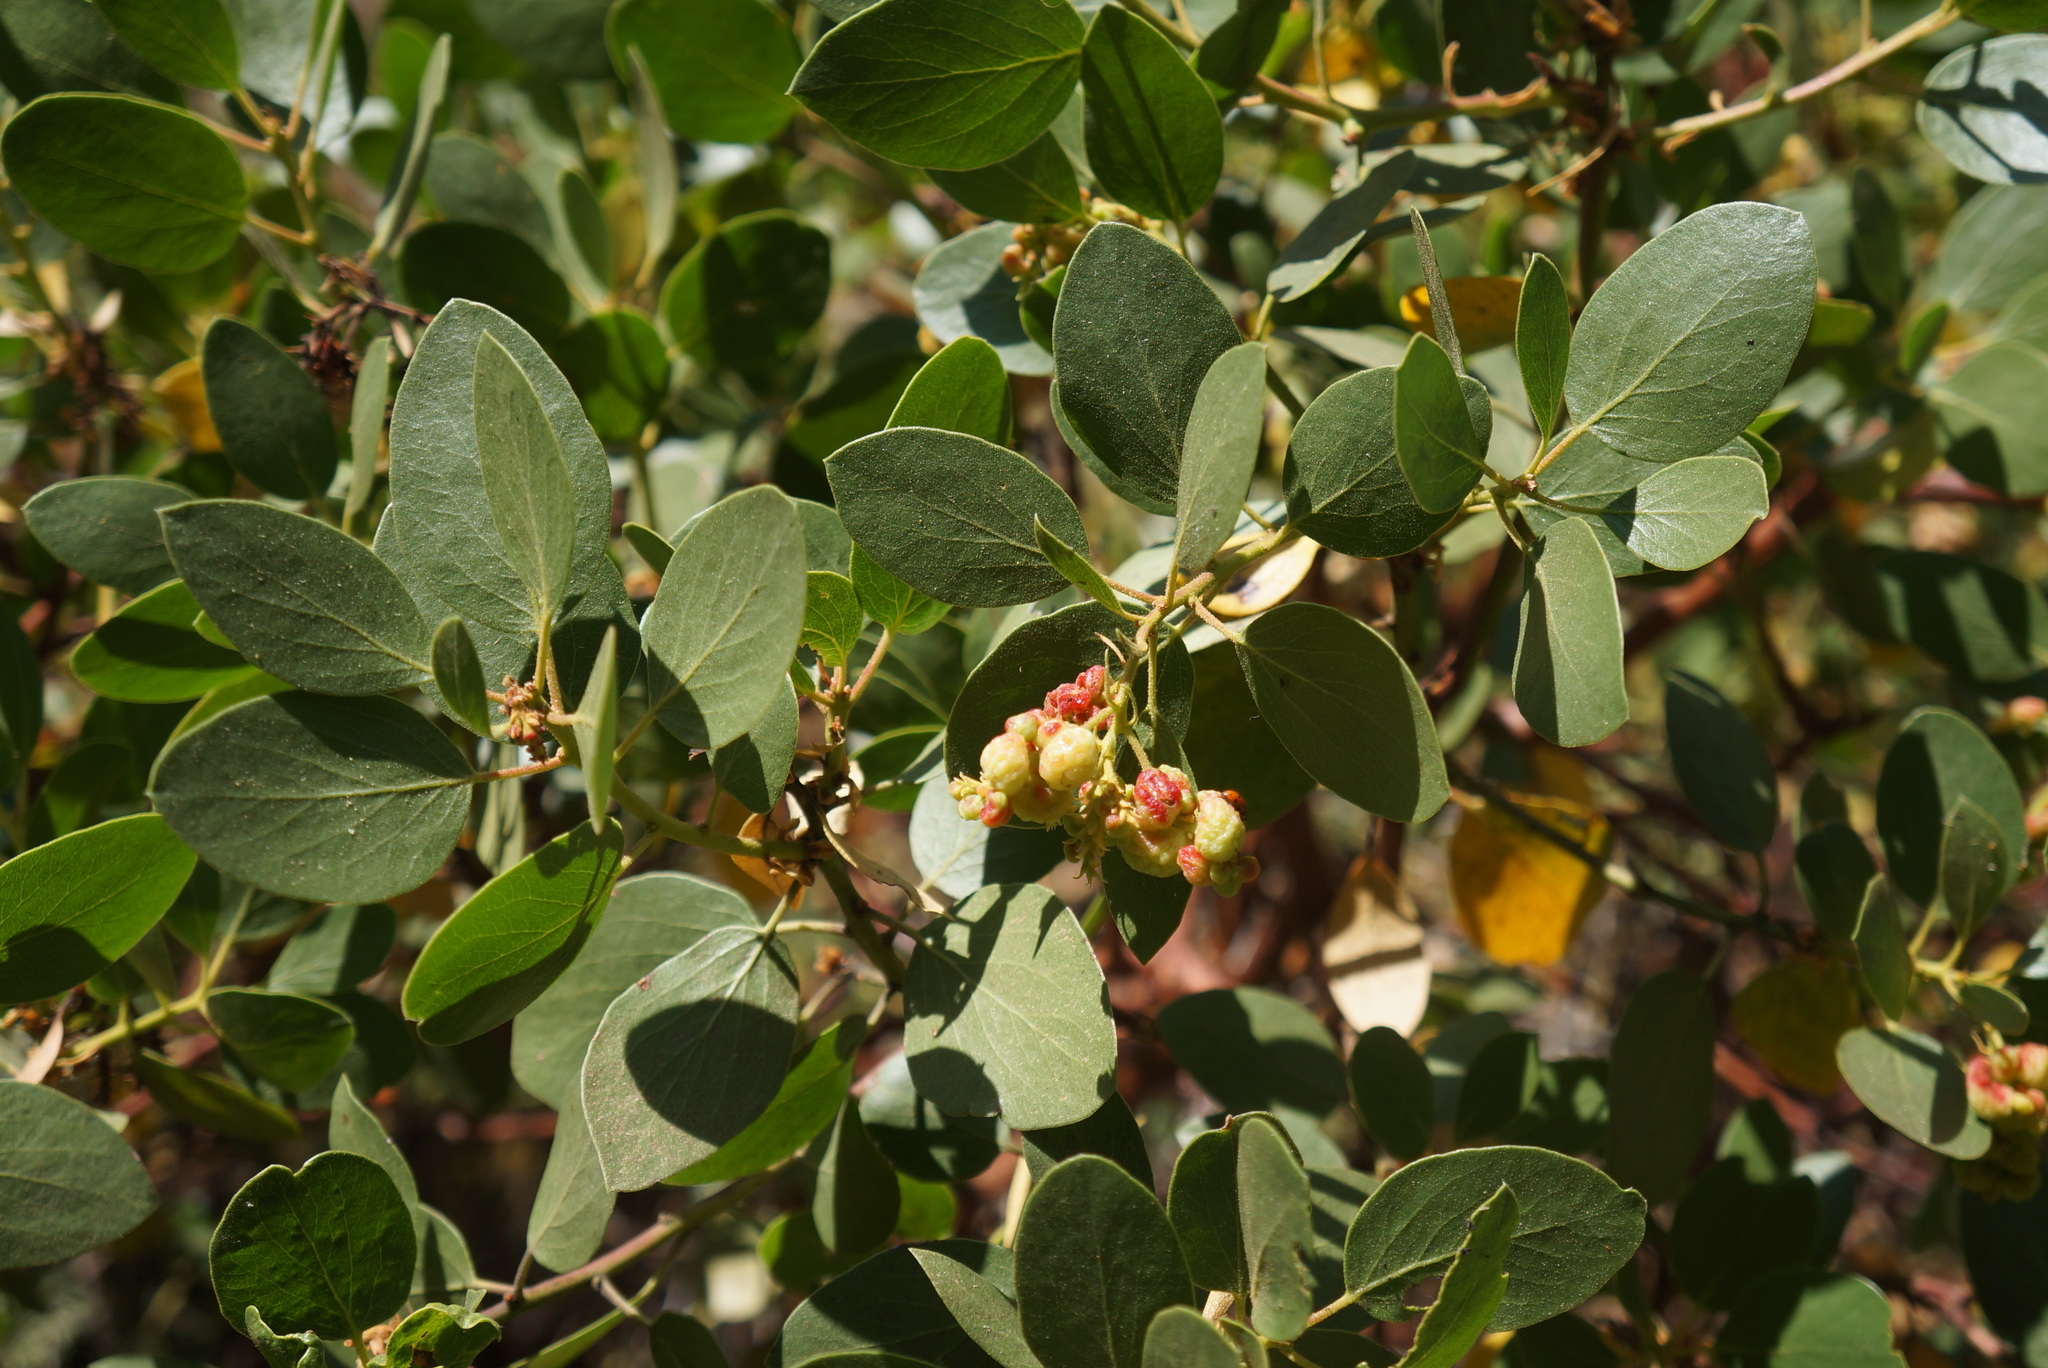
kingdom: Plantae
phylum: Tracheophyta
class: Magnoliopsida
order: Ericales
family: Ericaceae
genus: Arctostaphylos
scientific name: Arctostaphylos patula
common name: Green-leaf manzanita
